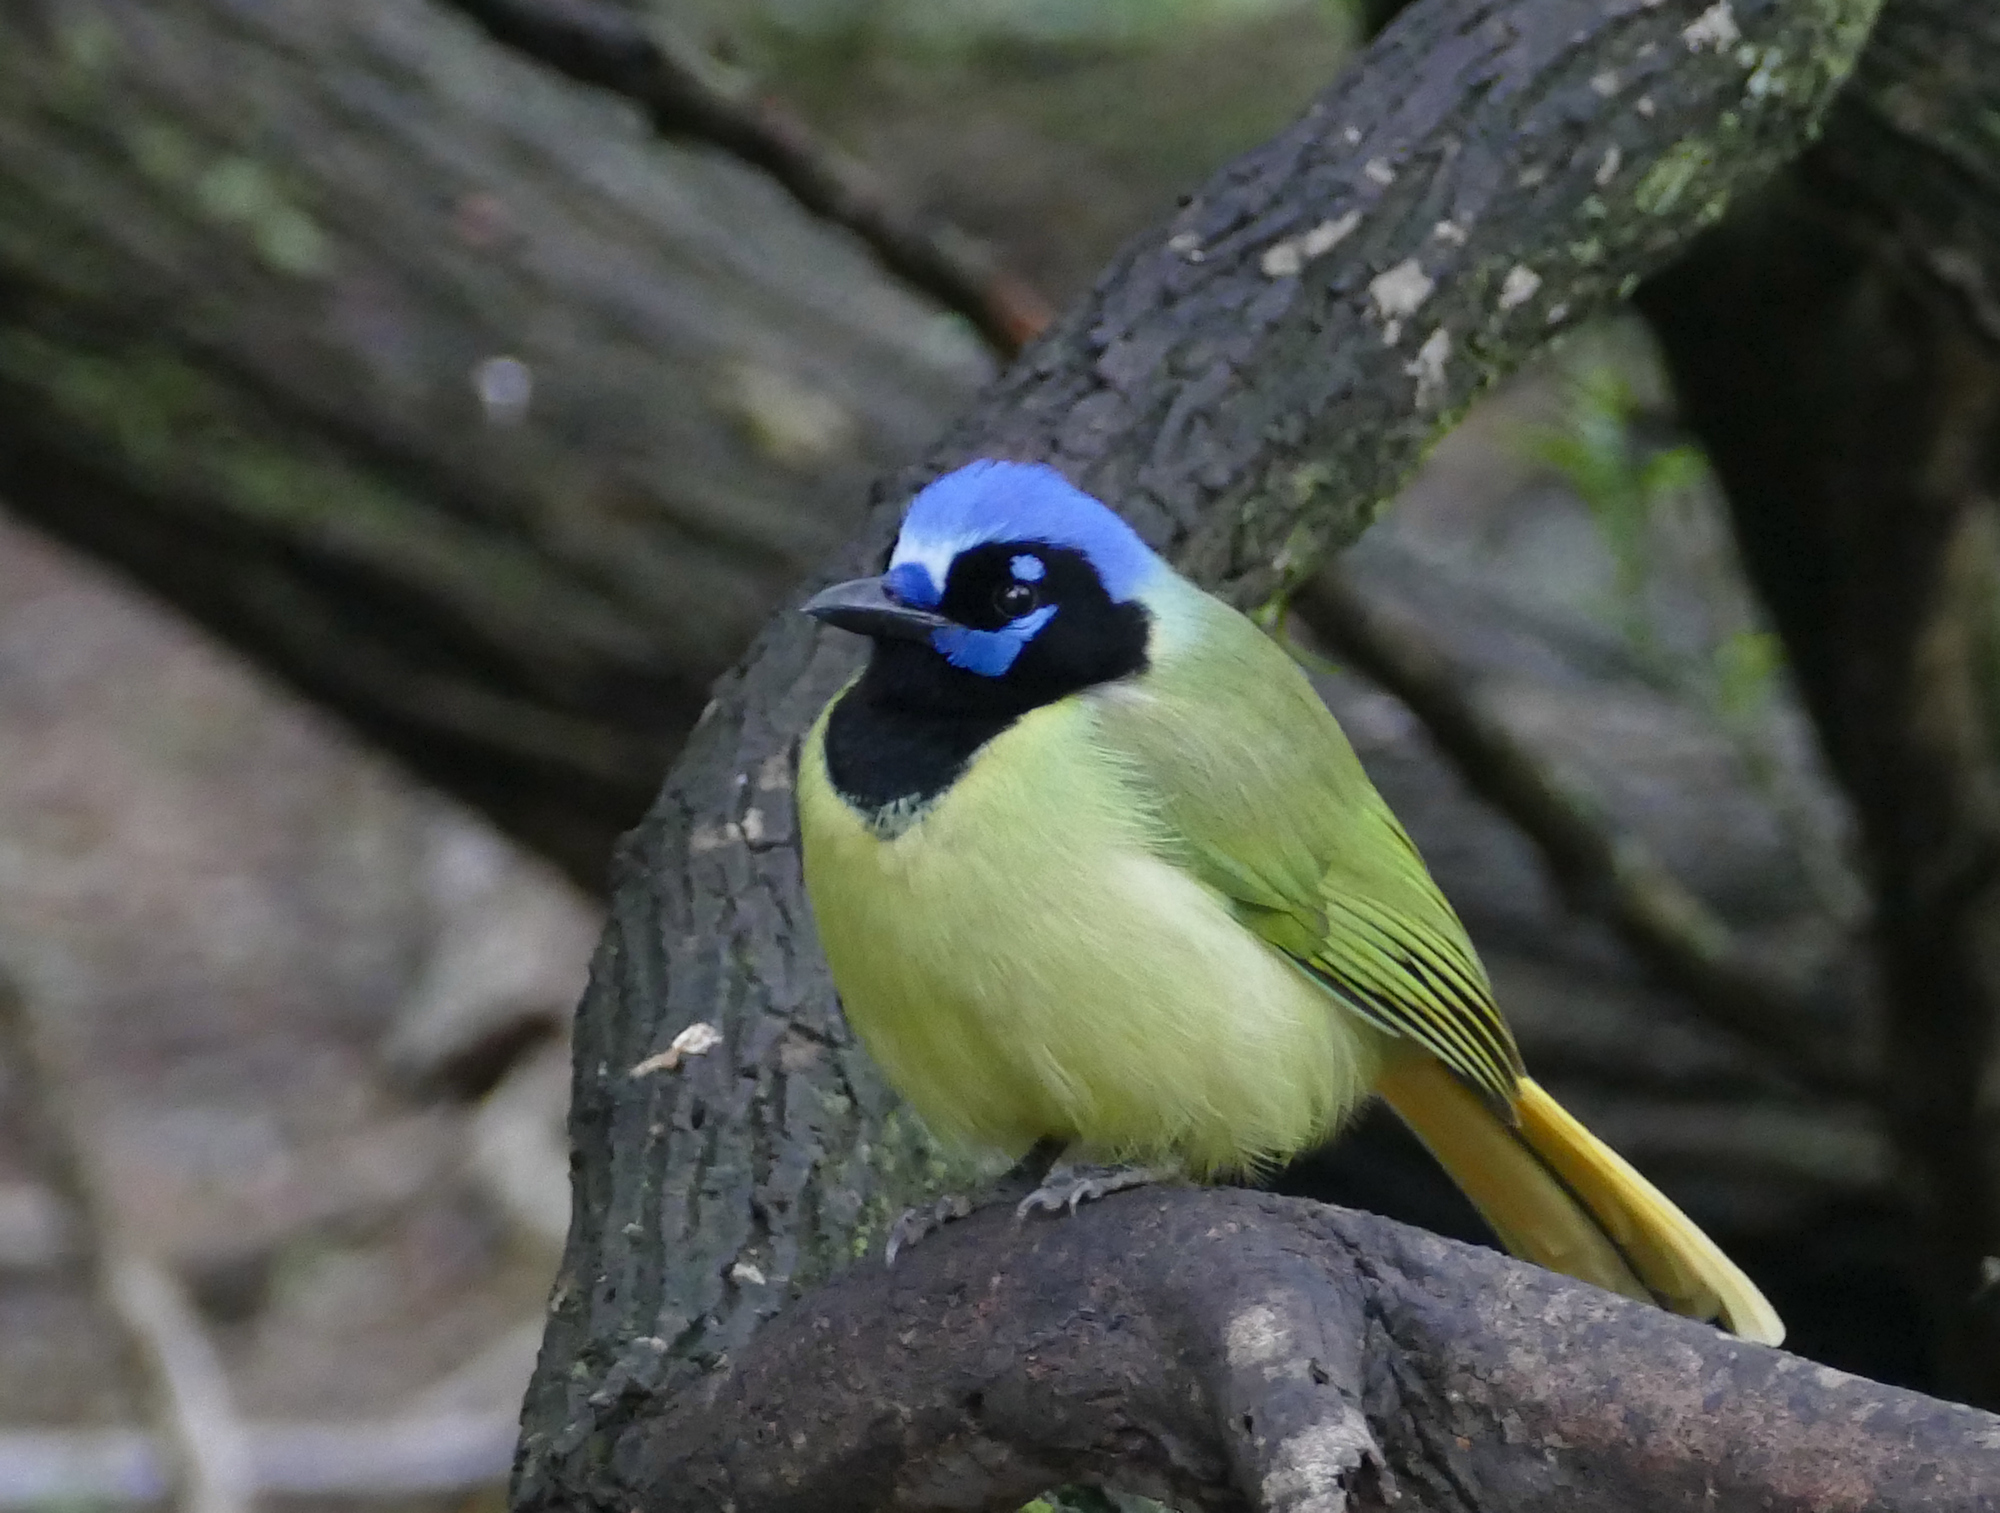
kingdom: Animalia
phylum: Chordata
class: Aves
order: Passeriformes
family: Corvidae
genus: Cyanocorax
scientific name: Cyanocorax yncas
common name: Green jay
